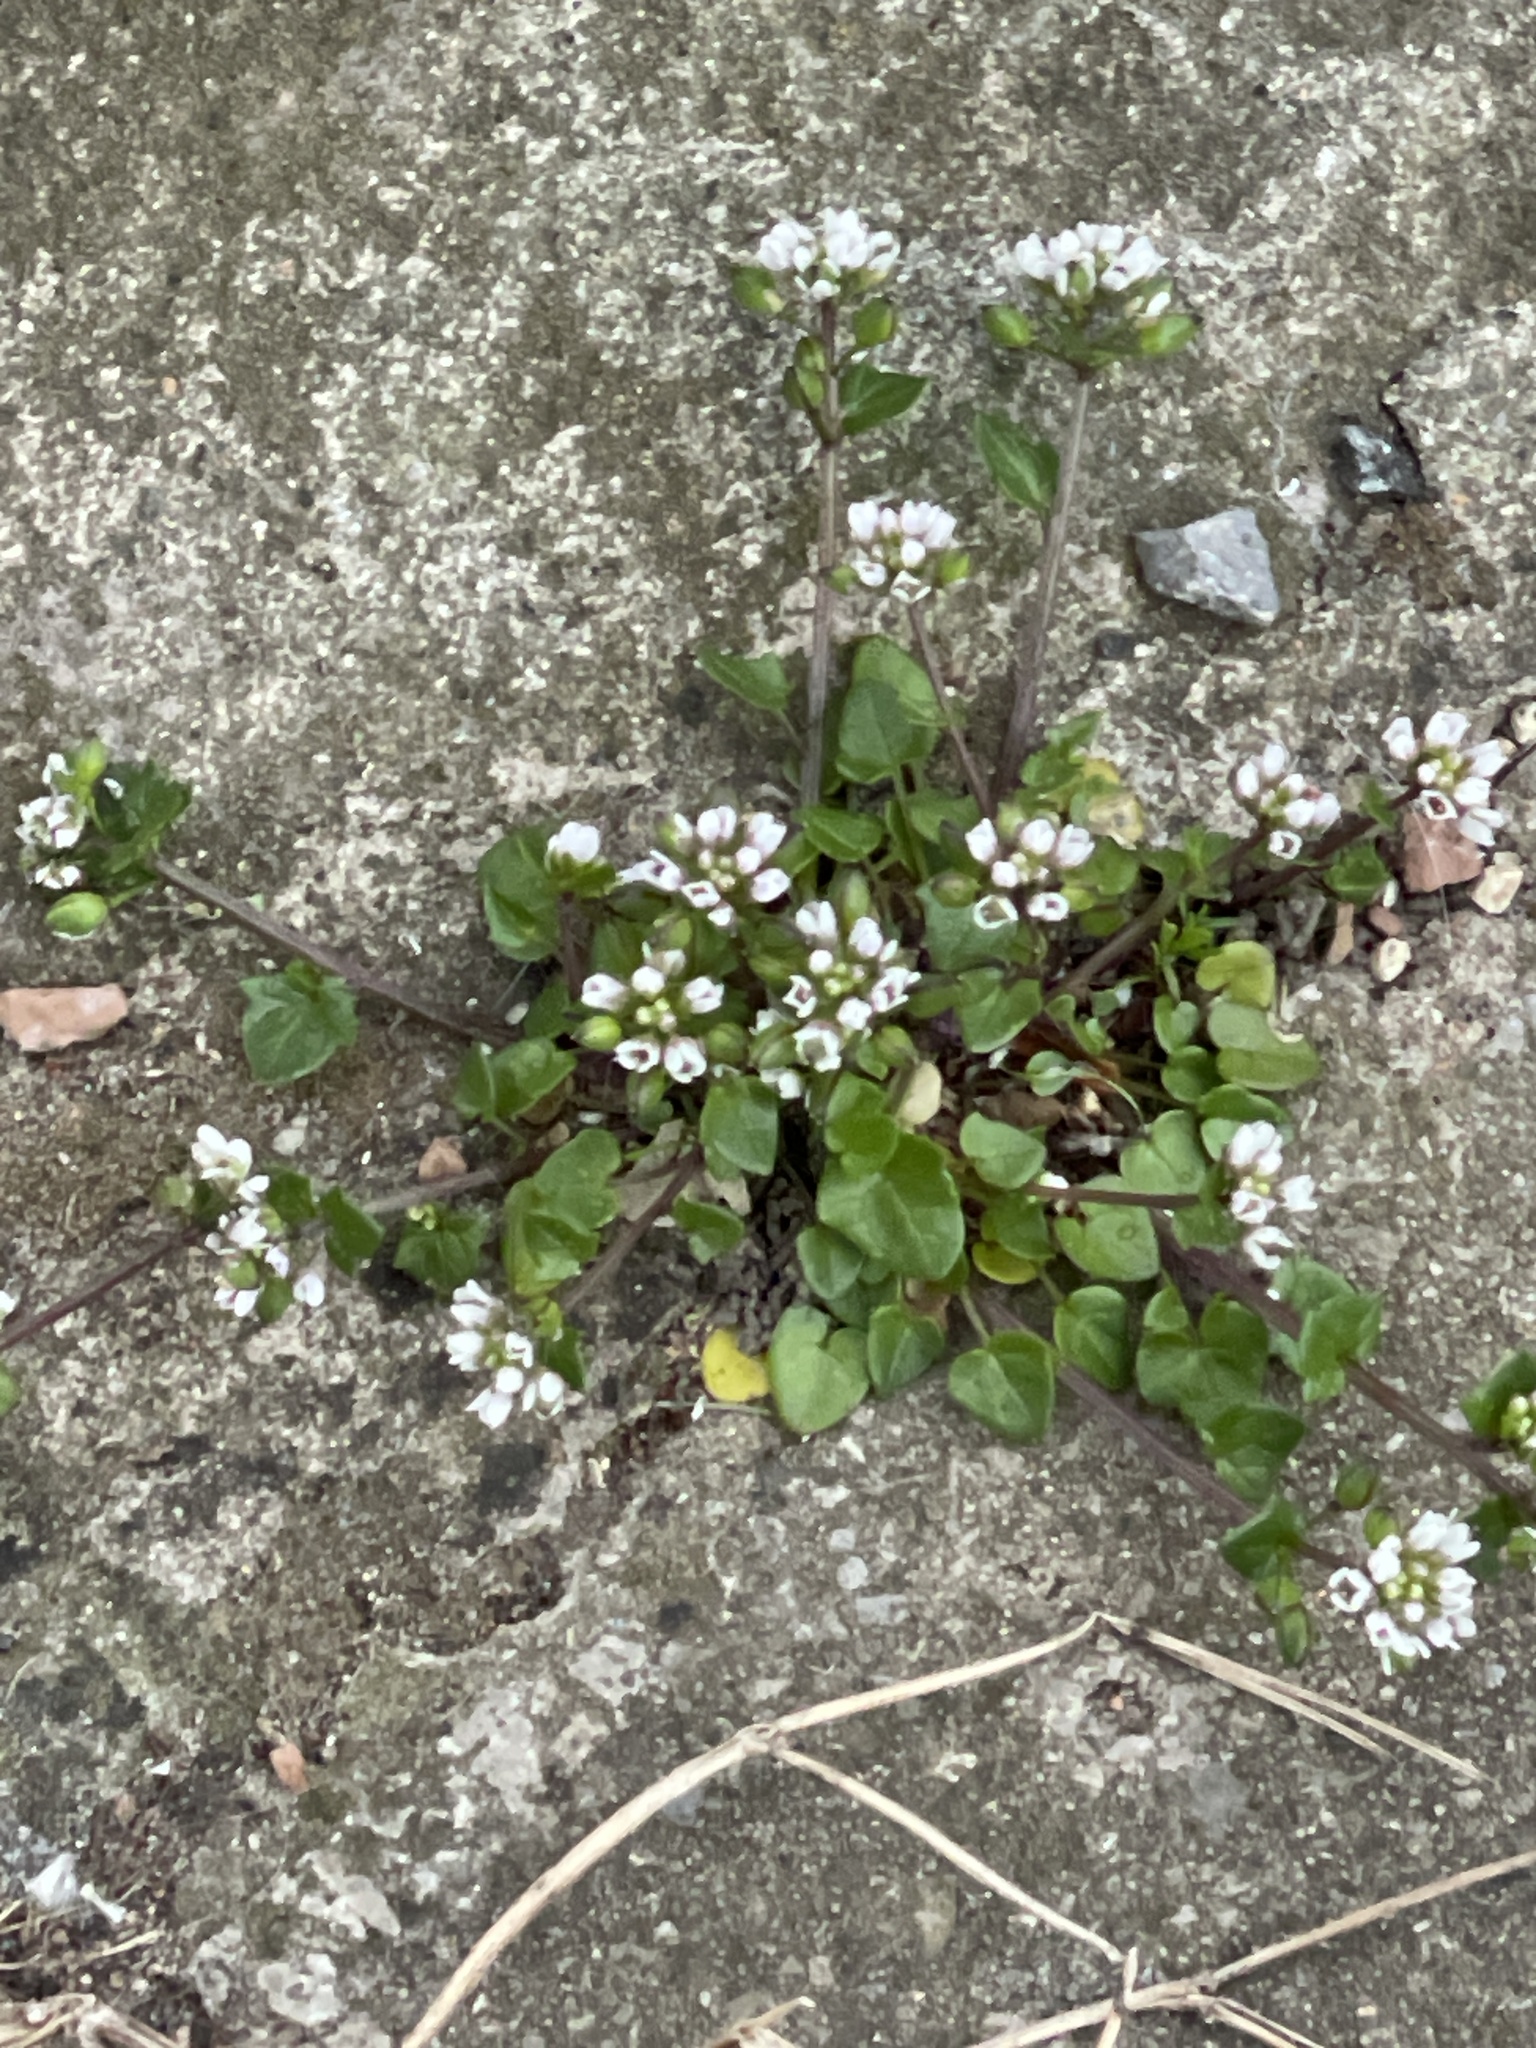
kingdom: Plantae
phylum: Tracheophyta
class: Magnoliopsida
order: Brassicales
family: Brassicaceae
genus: Cochlearia
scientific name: Cochlearia danica
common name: Early scurvygrass
